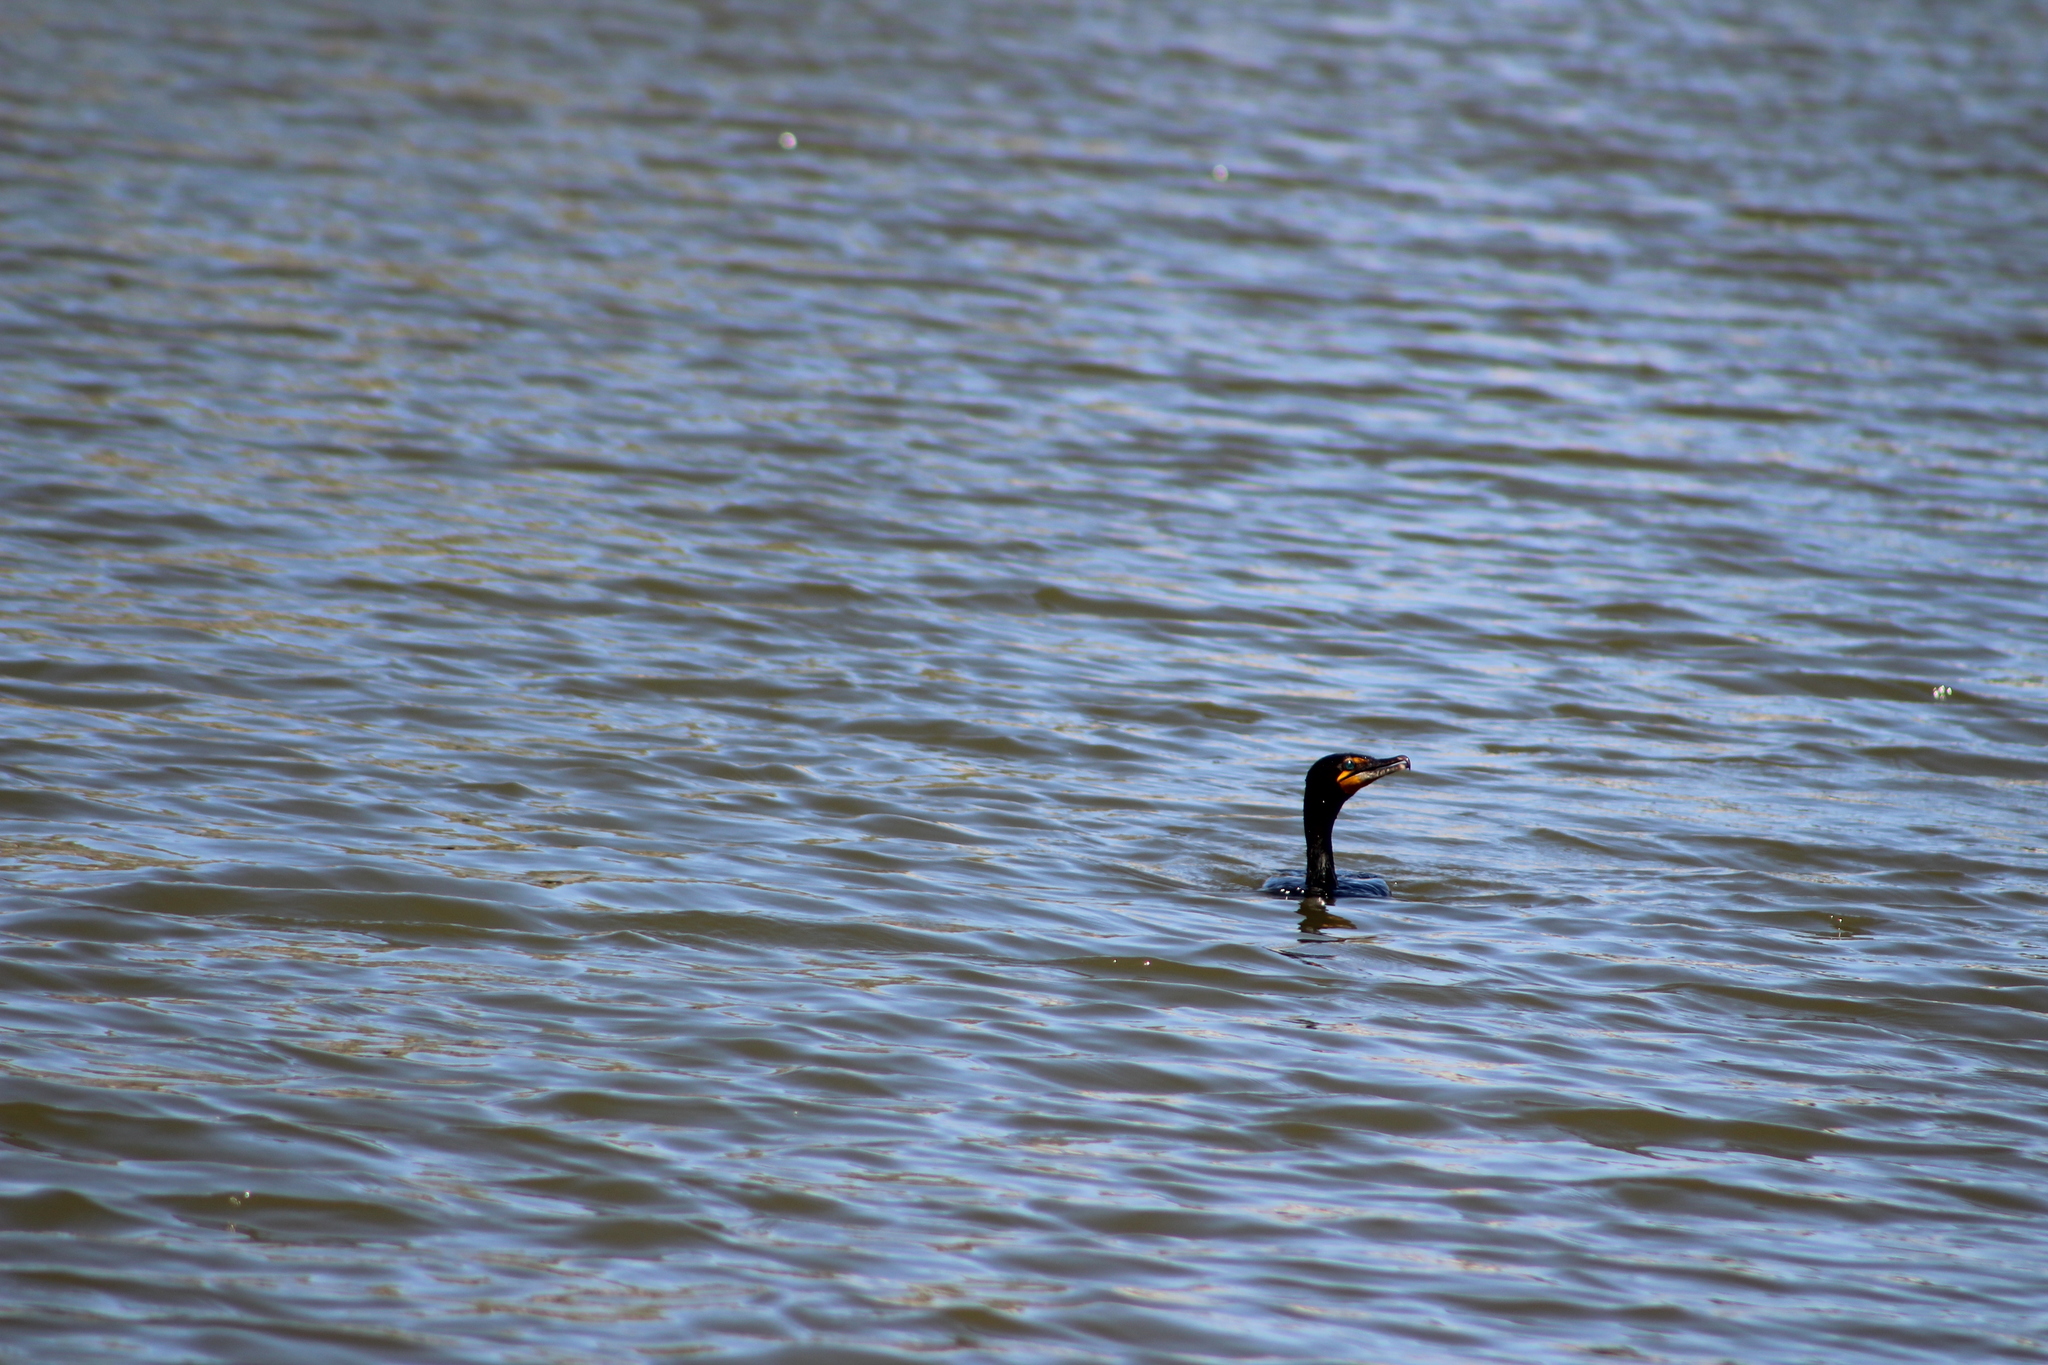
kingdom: Animalia
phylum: Chordata
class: Aves
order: Suliformes
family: Phalacrocoracidae
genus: Phalacrocorax
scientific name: Phalacrocorax auritus
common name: Double-crested cormorant
